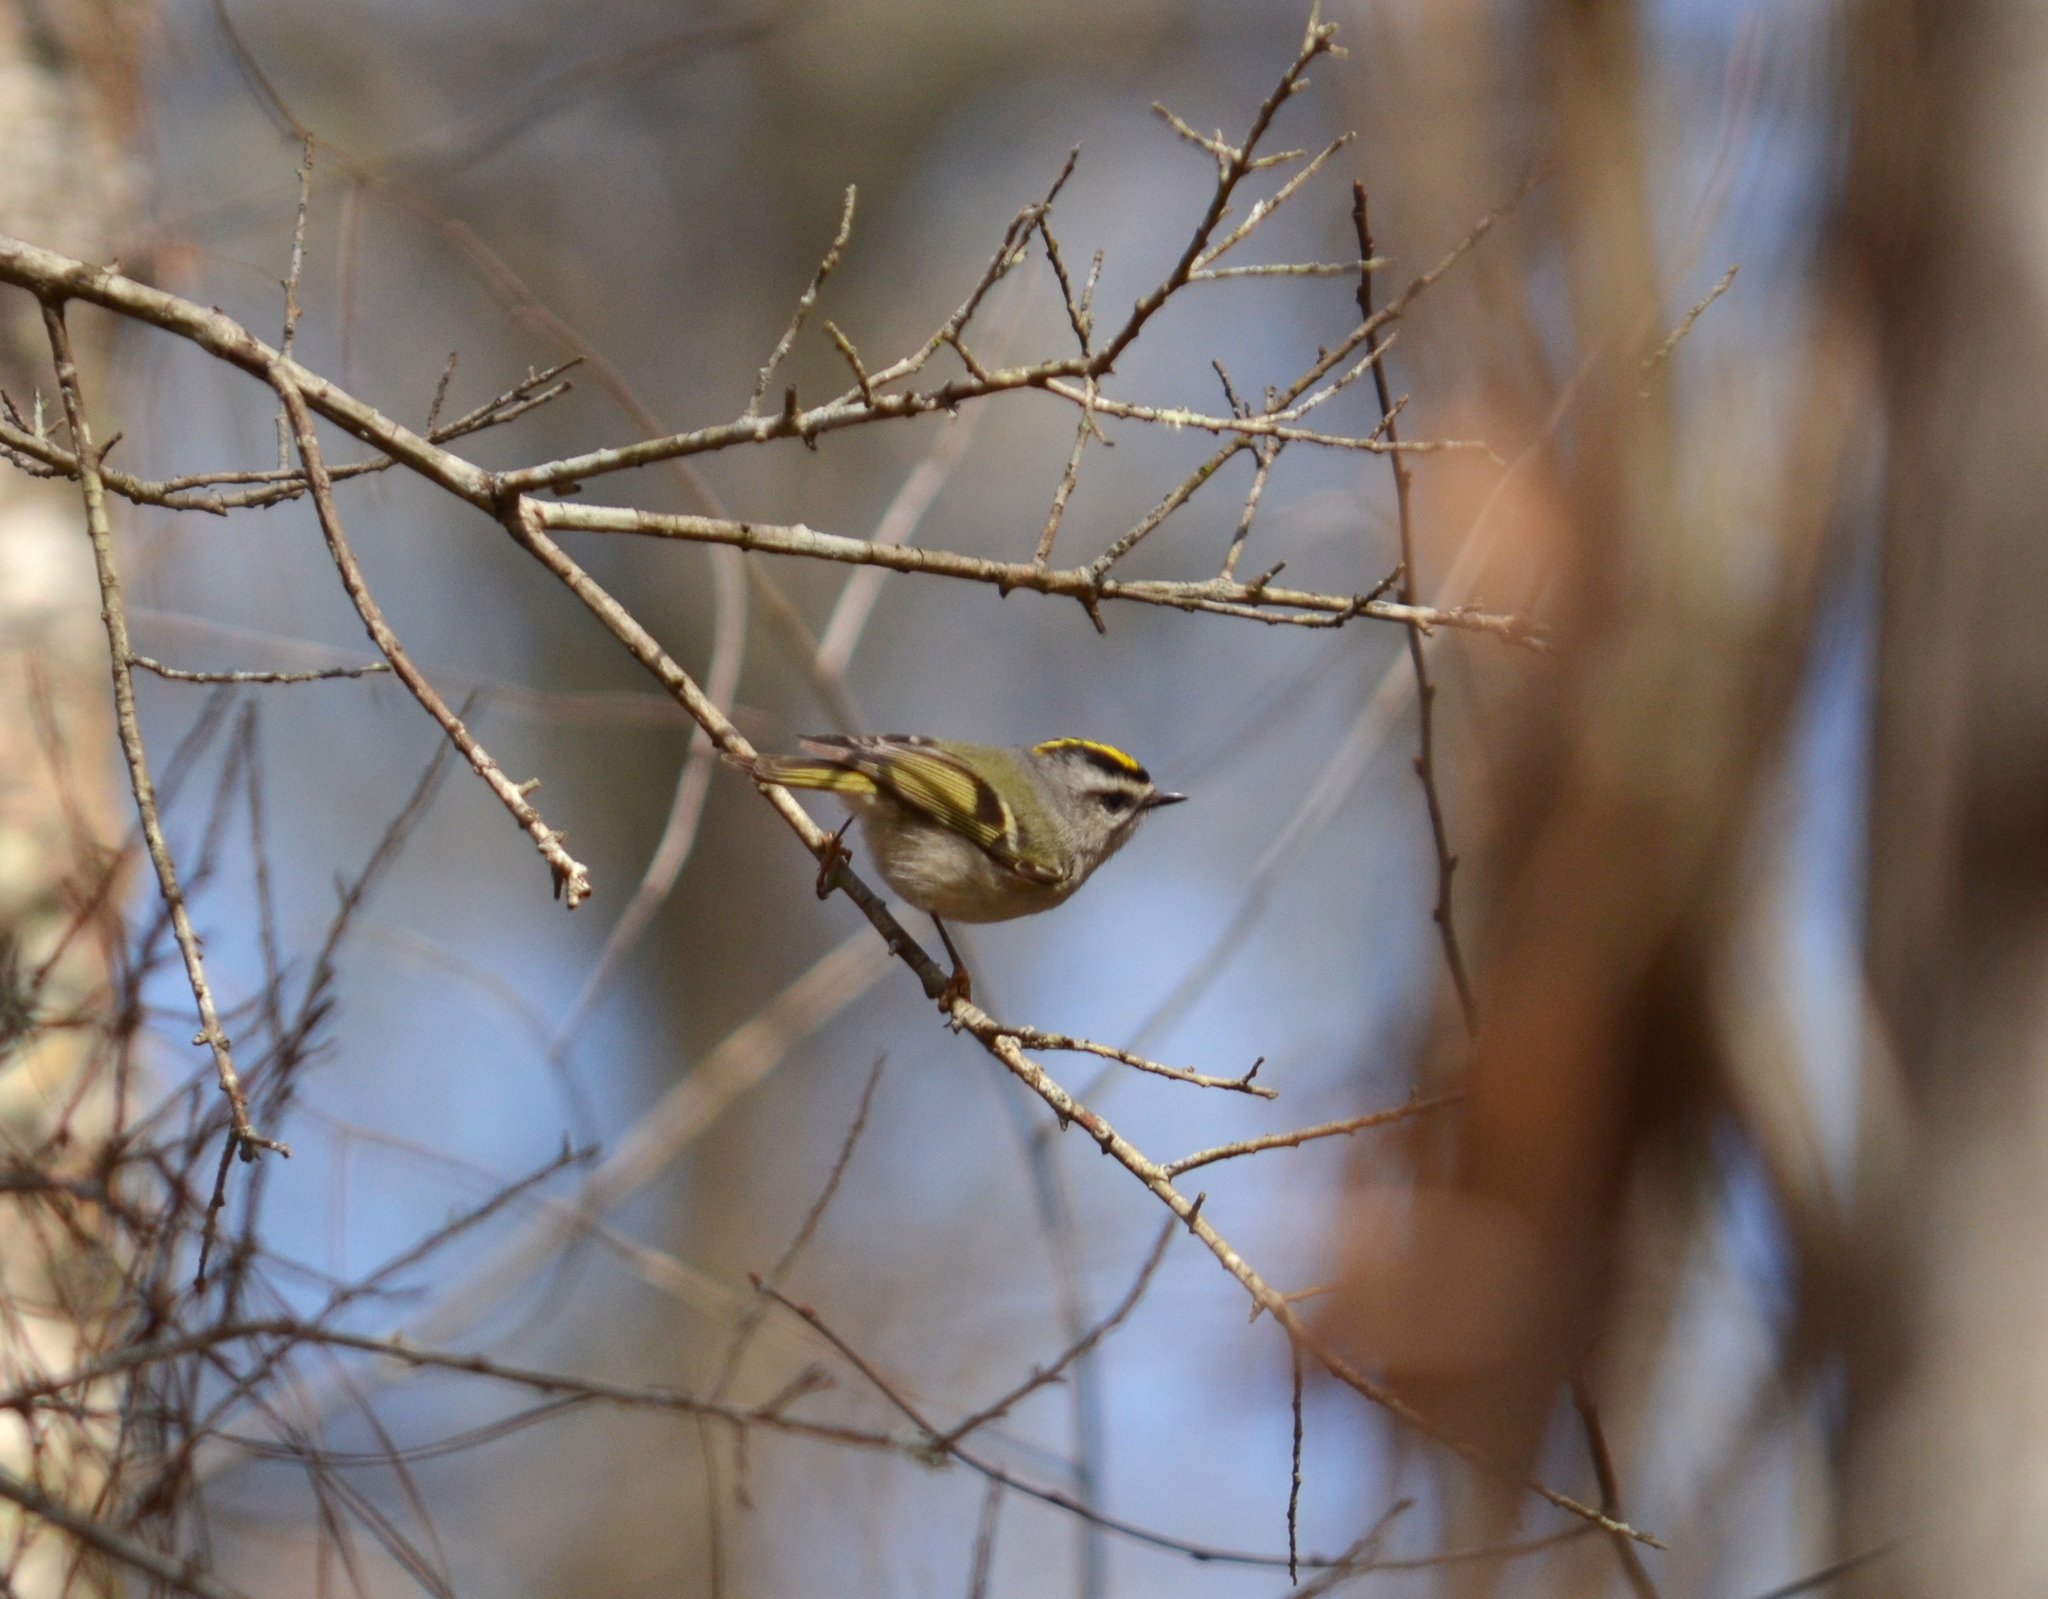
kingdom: Animalia
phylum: Chordata
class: Aves
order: Passeriformes
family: Regulidae
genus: Regulus
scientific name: Regulus satrapa
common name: Golden-crowned kinglet
